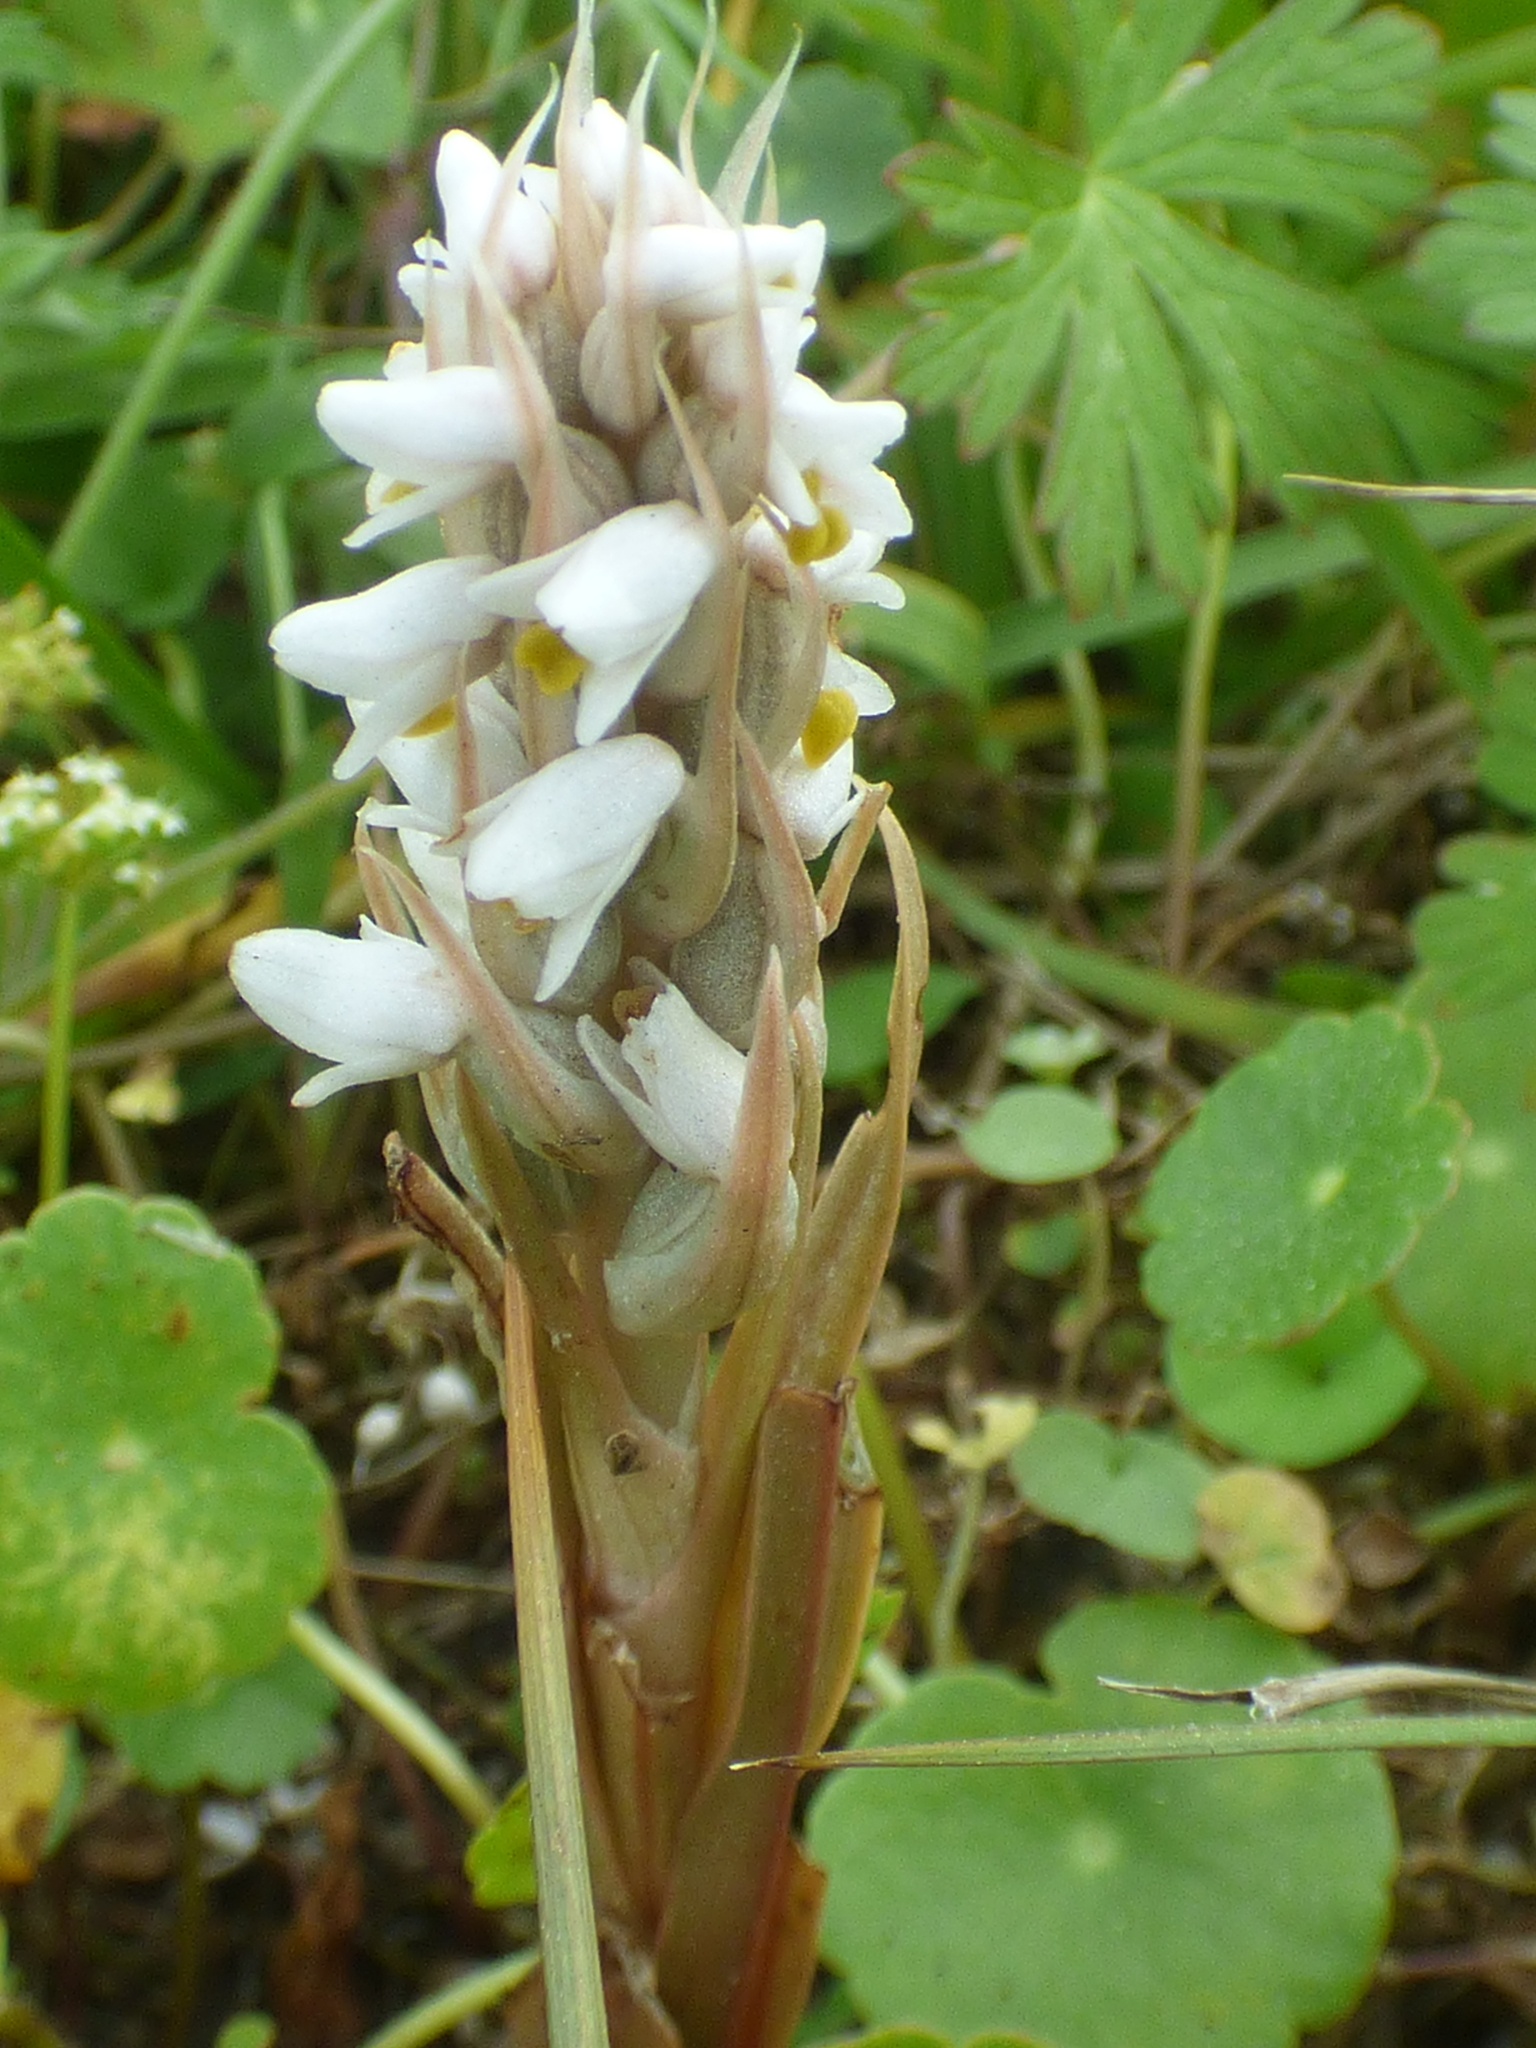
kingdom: Plantae
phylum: Tracheophyta
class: Liliopsida
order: Asparagales
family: Orchidaceae
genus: Zeuxine
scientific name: Zeuxine strateumatica
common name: Soldier's orchid
